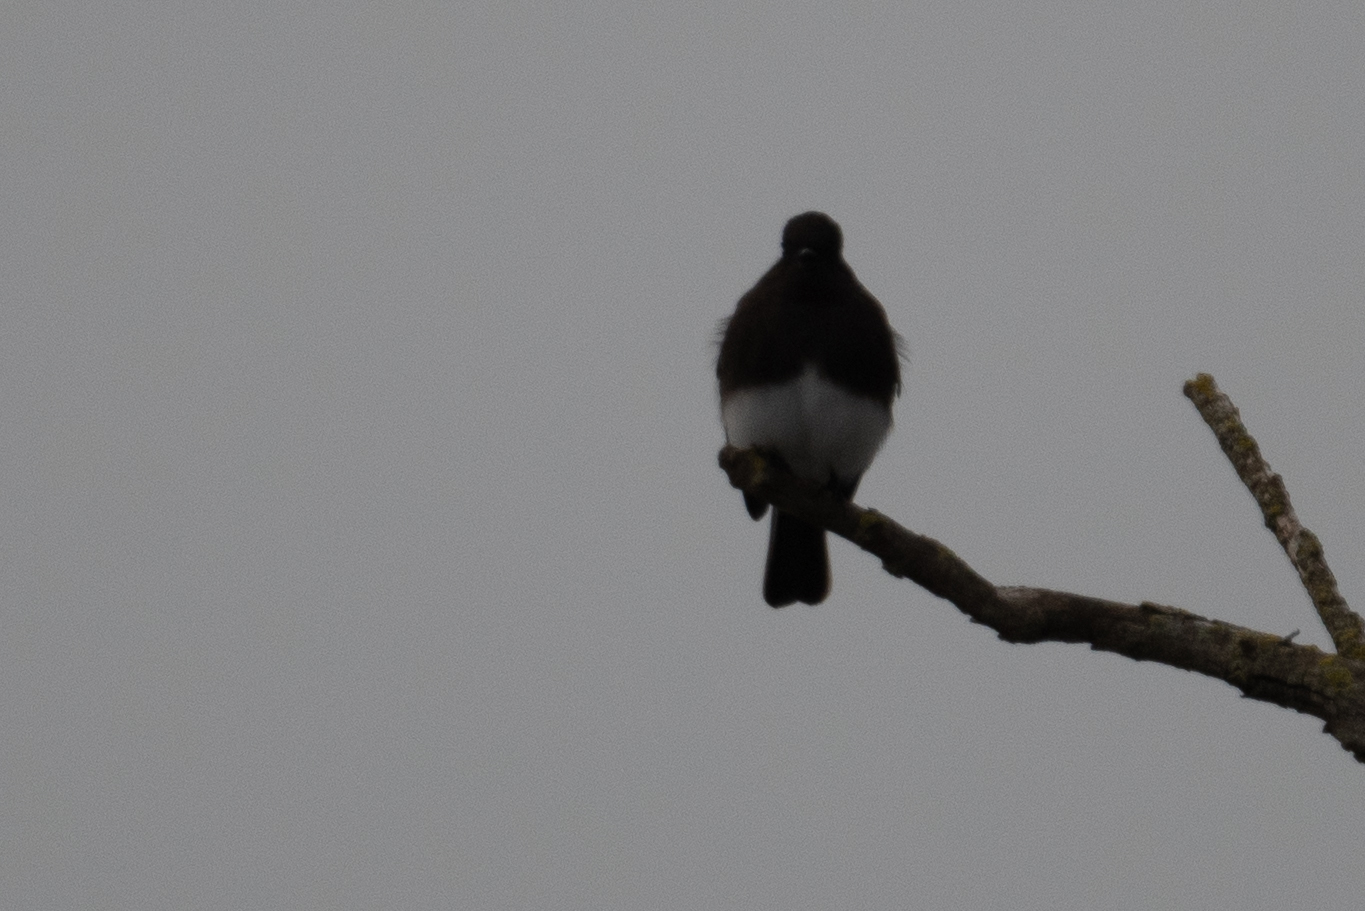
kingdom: Animalia
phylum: Chordata
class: Aves
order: Passeriformes
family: Tyrannidae
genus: Sayornis
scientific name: Sayornis nigricans
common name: Black phoebe
